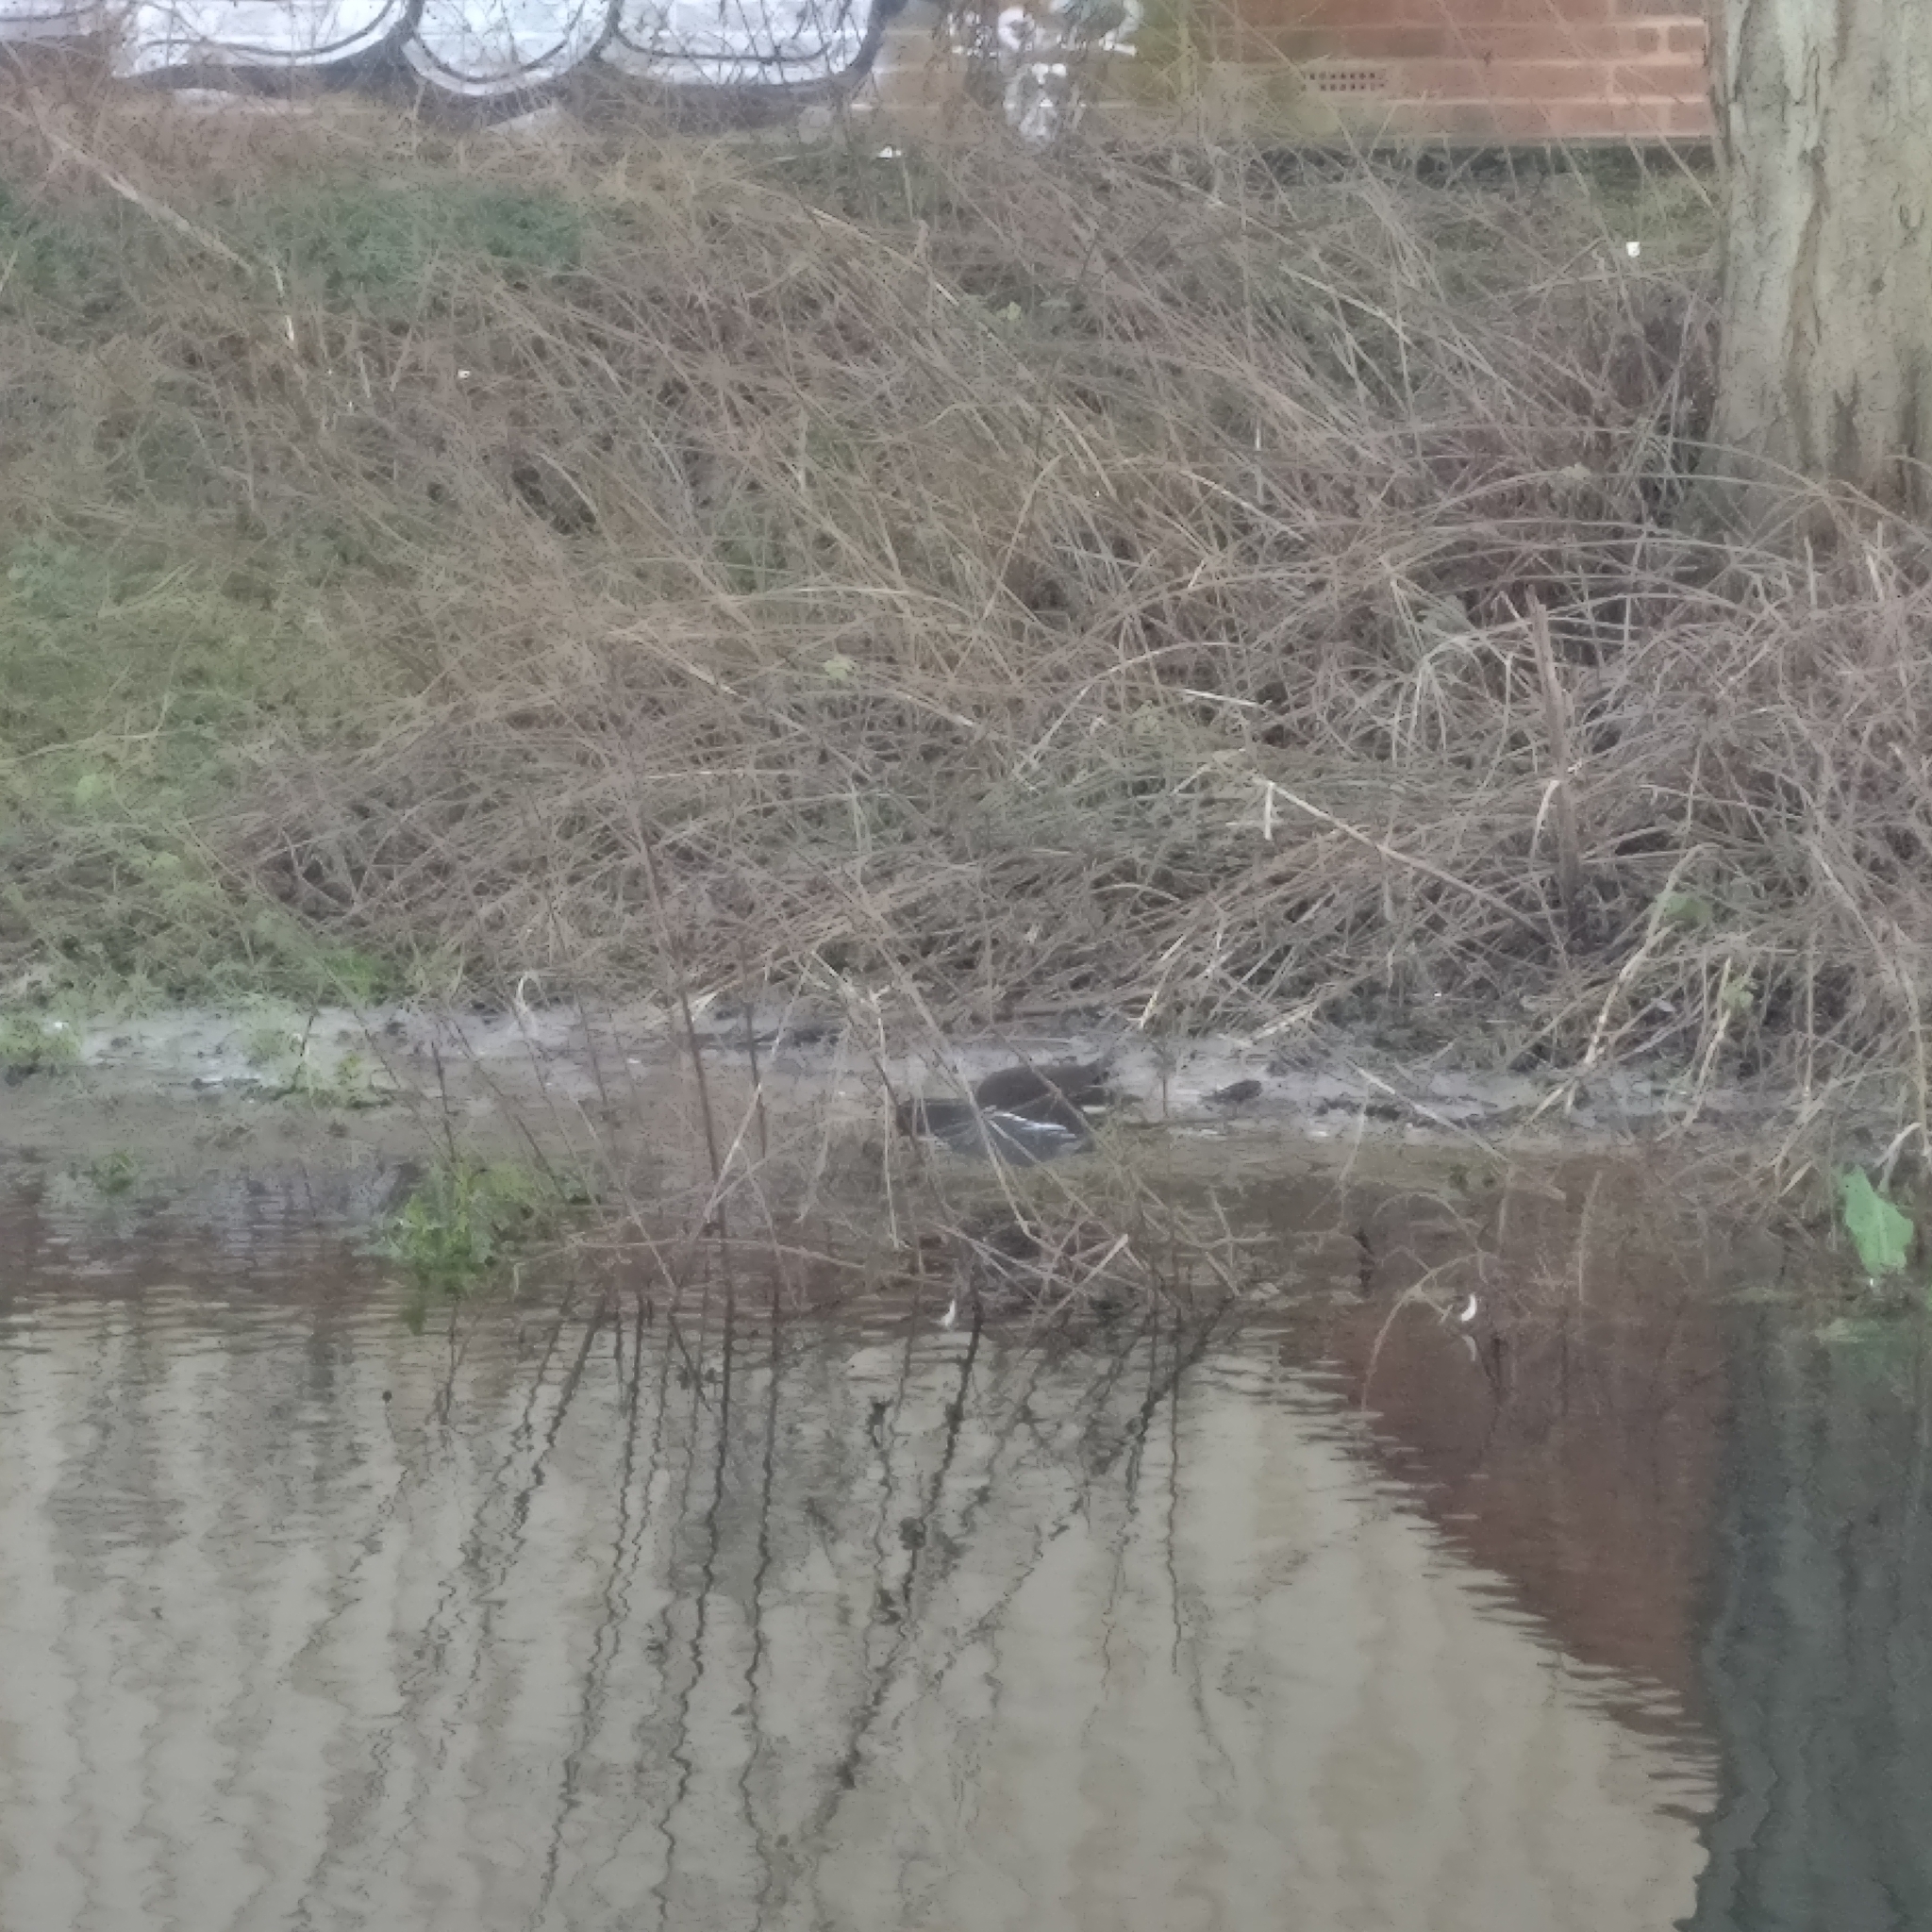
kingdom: Animalia
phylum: Chordata
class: Aves
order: Gruiformes
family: Rallidae
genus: Gallinula
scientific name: Gallinula chloropus
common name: Common moorhen
